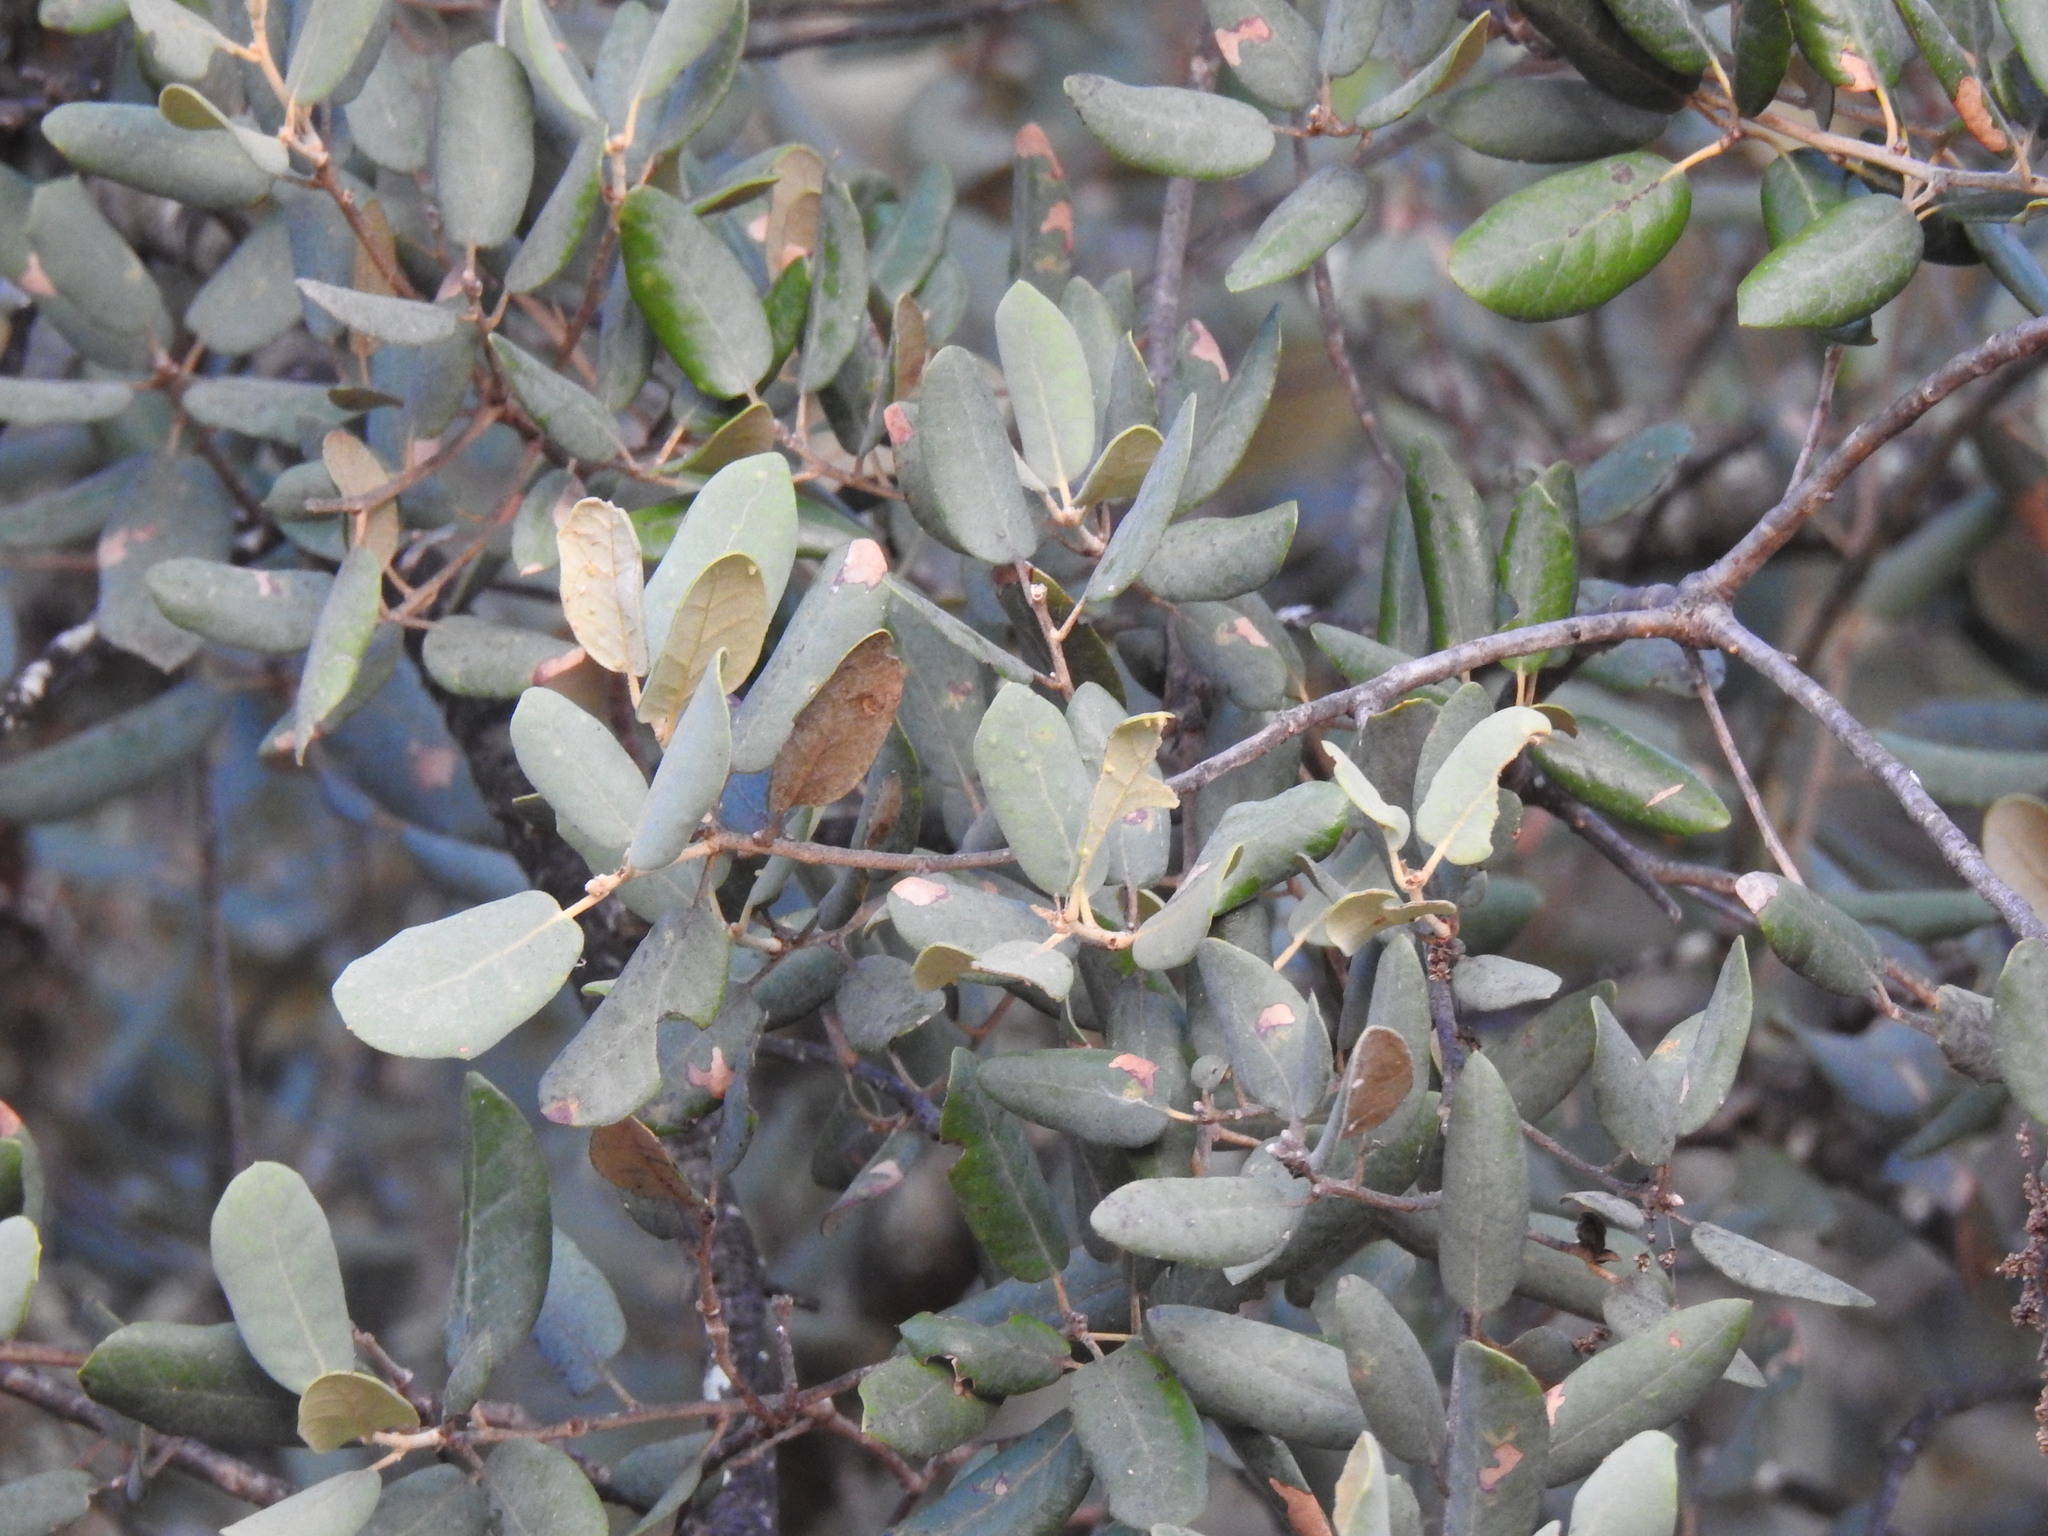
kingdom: Plantae
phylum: Tracheophyta
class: Magnoliopsida
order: Fagales
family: Fagaceae
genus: Quercus
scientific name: Quercus rotundifolia
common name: Holm oak
